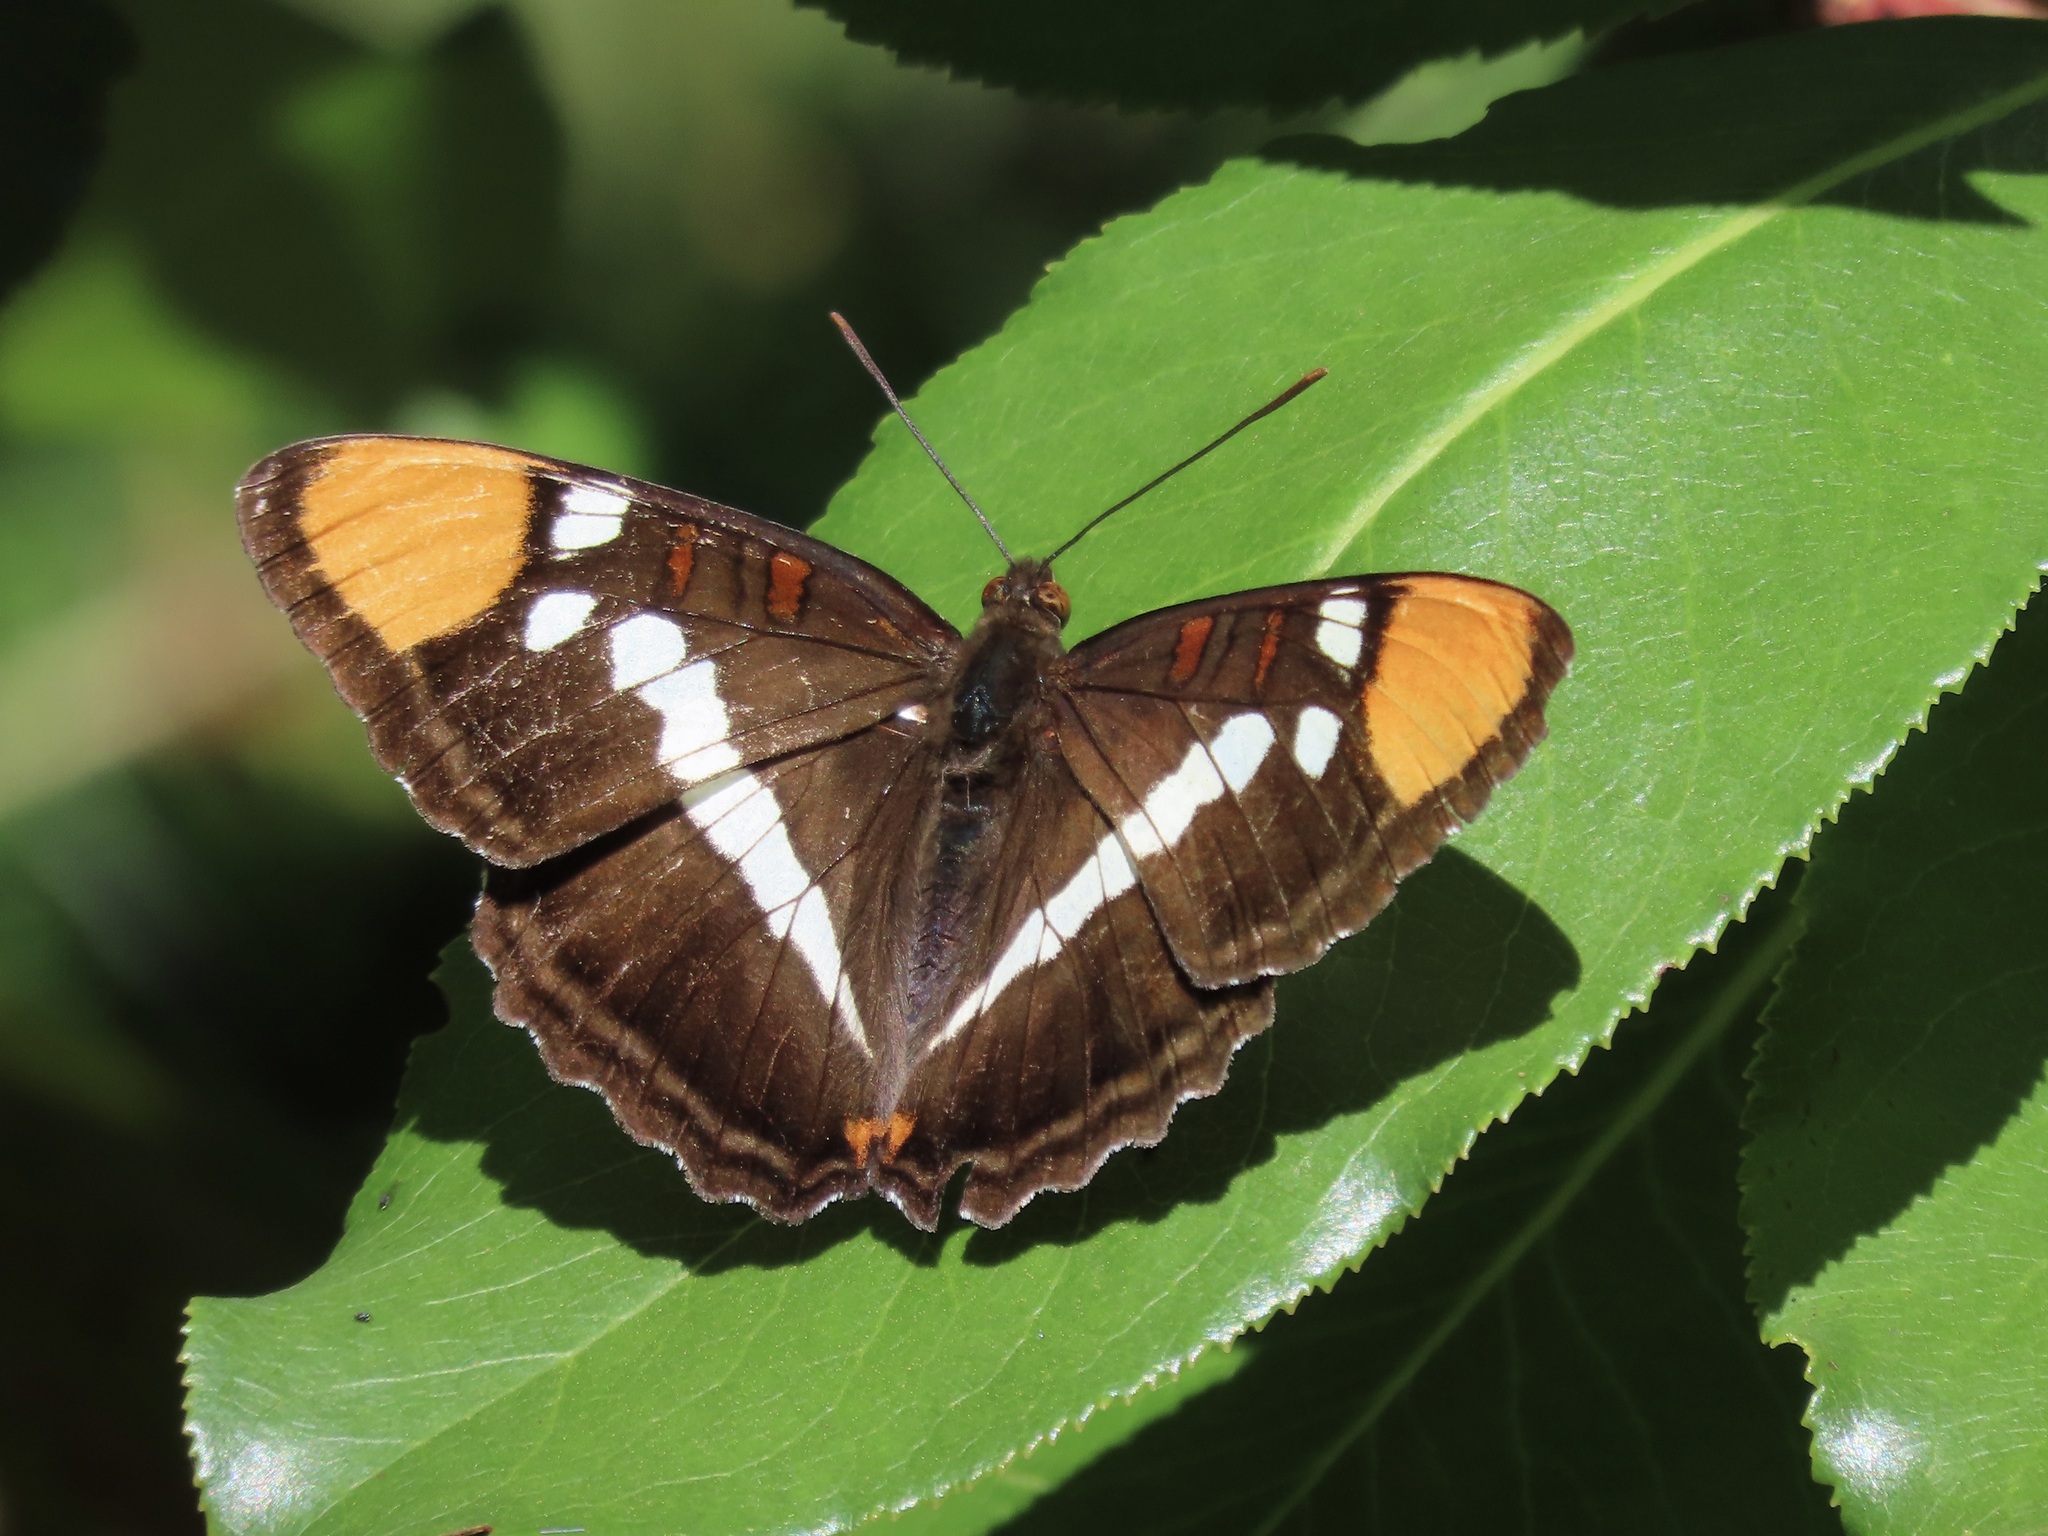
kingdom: Animalia
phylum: Arthropoda
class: Insecta
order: Lepidoptera
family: Nymphalidae
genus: Limenitis
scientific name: Limenitis bredowii
